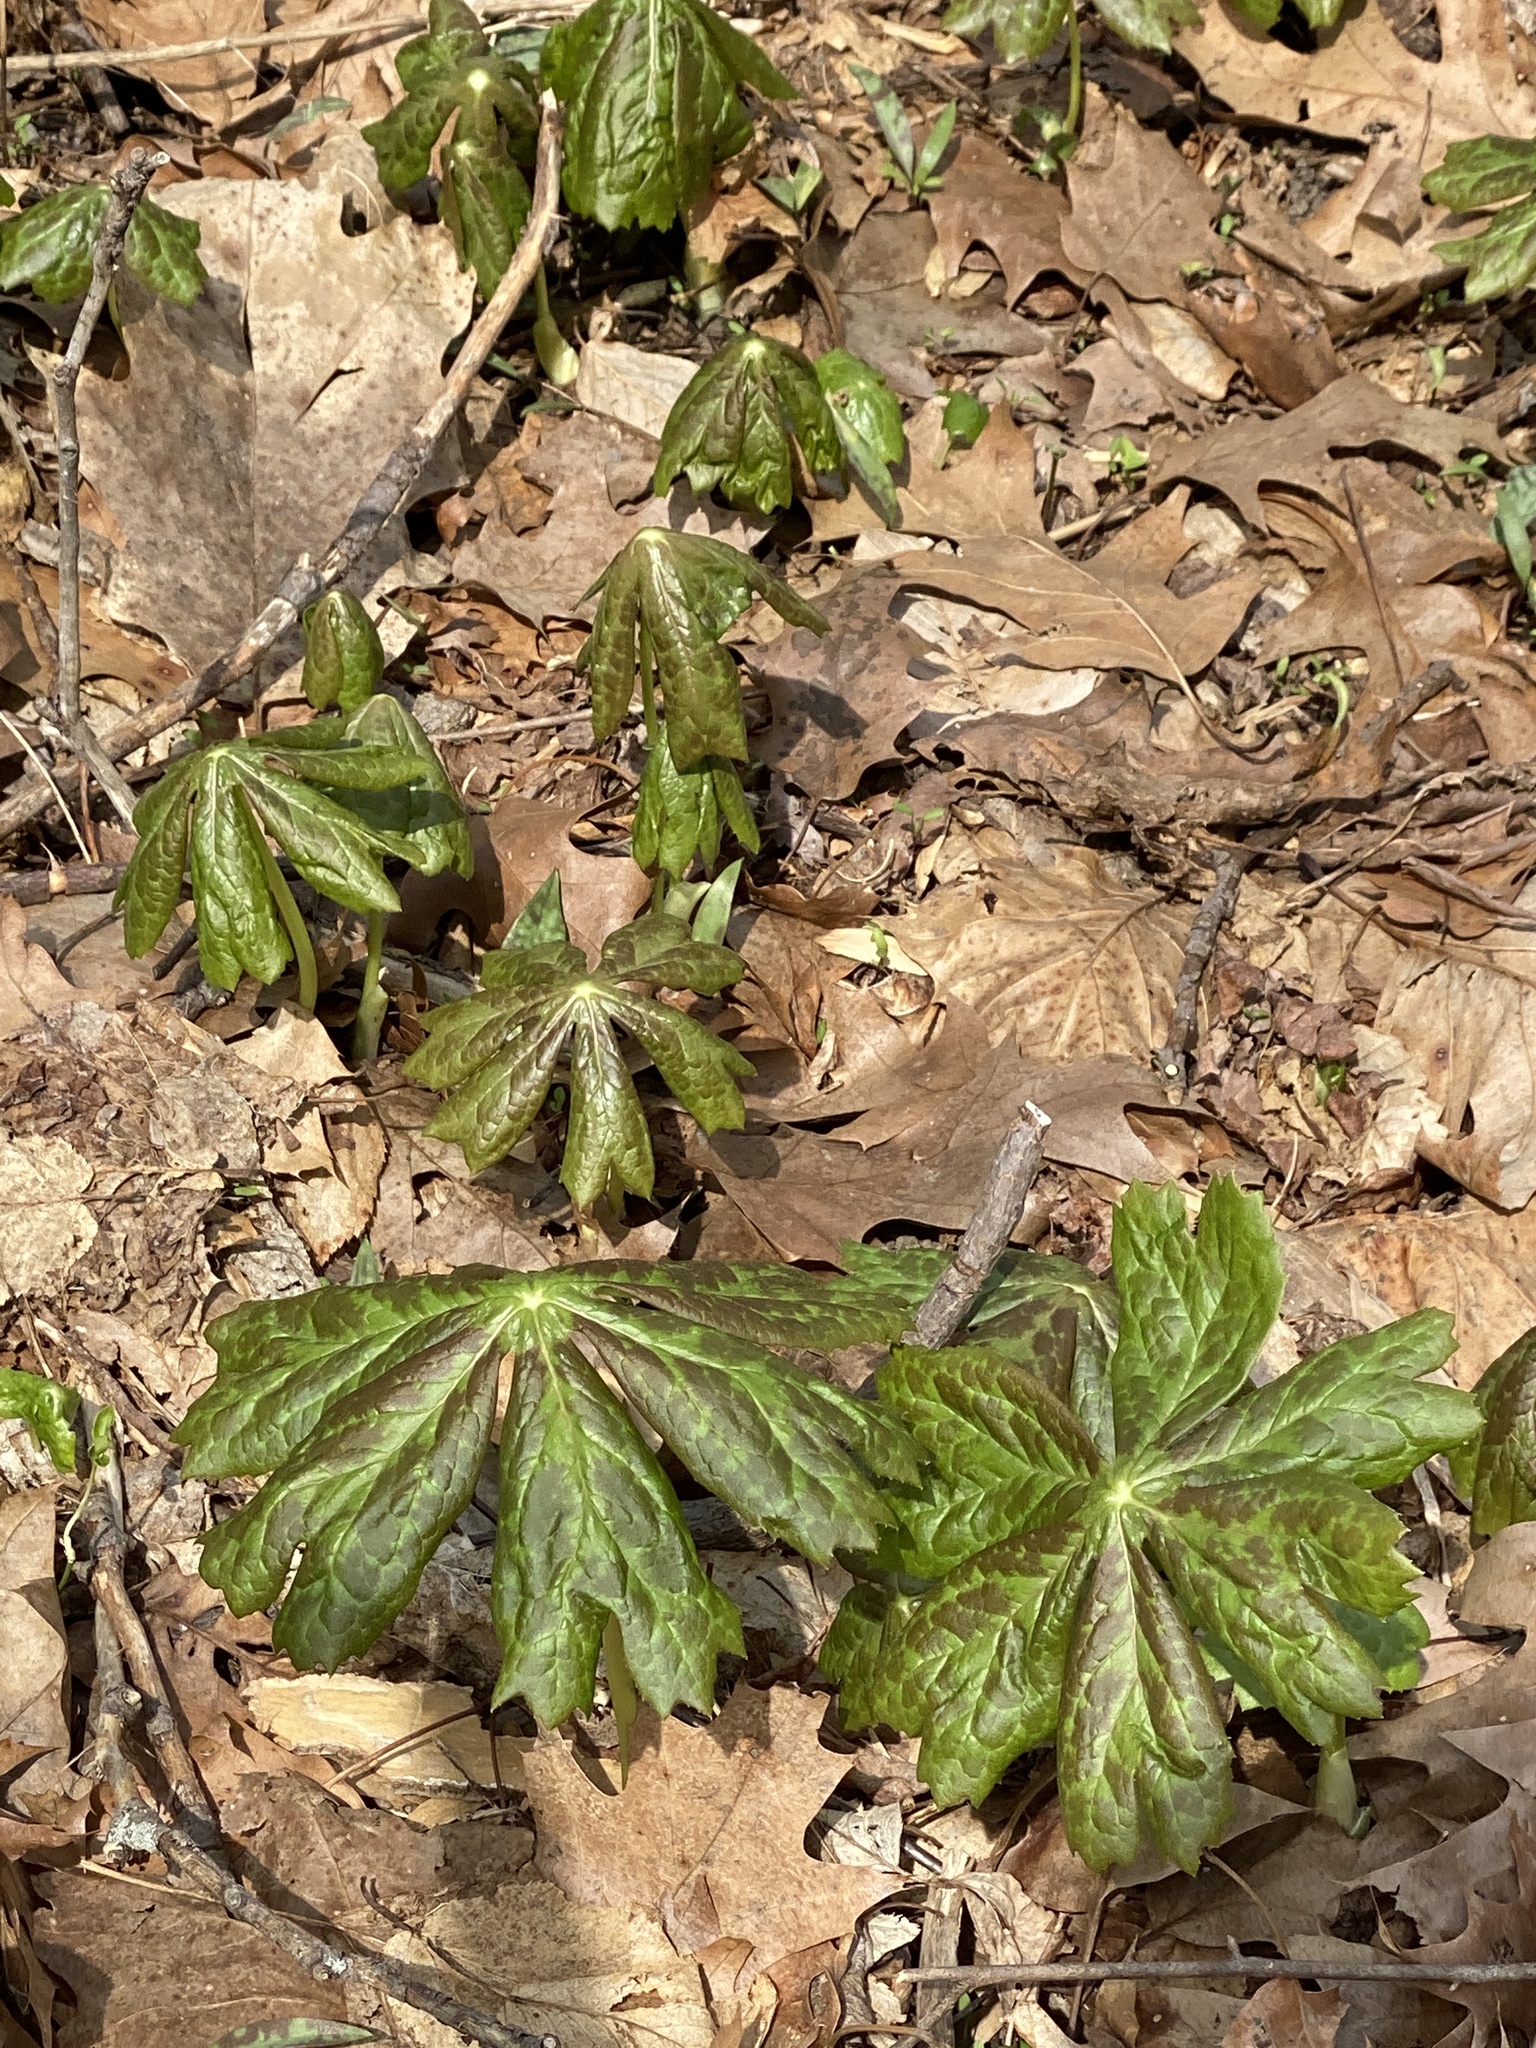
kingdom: Plantae
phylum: Tracheophyta
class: Magnoliopsida
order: Ranunculales
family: Berberidaceae
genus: Podophyllum
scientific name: Podophyllum peltatum
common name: Wild mandrake
